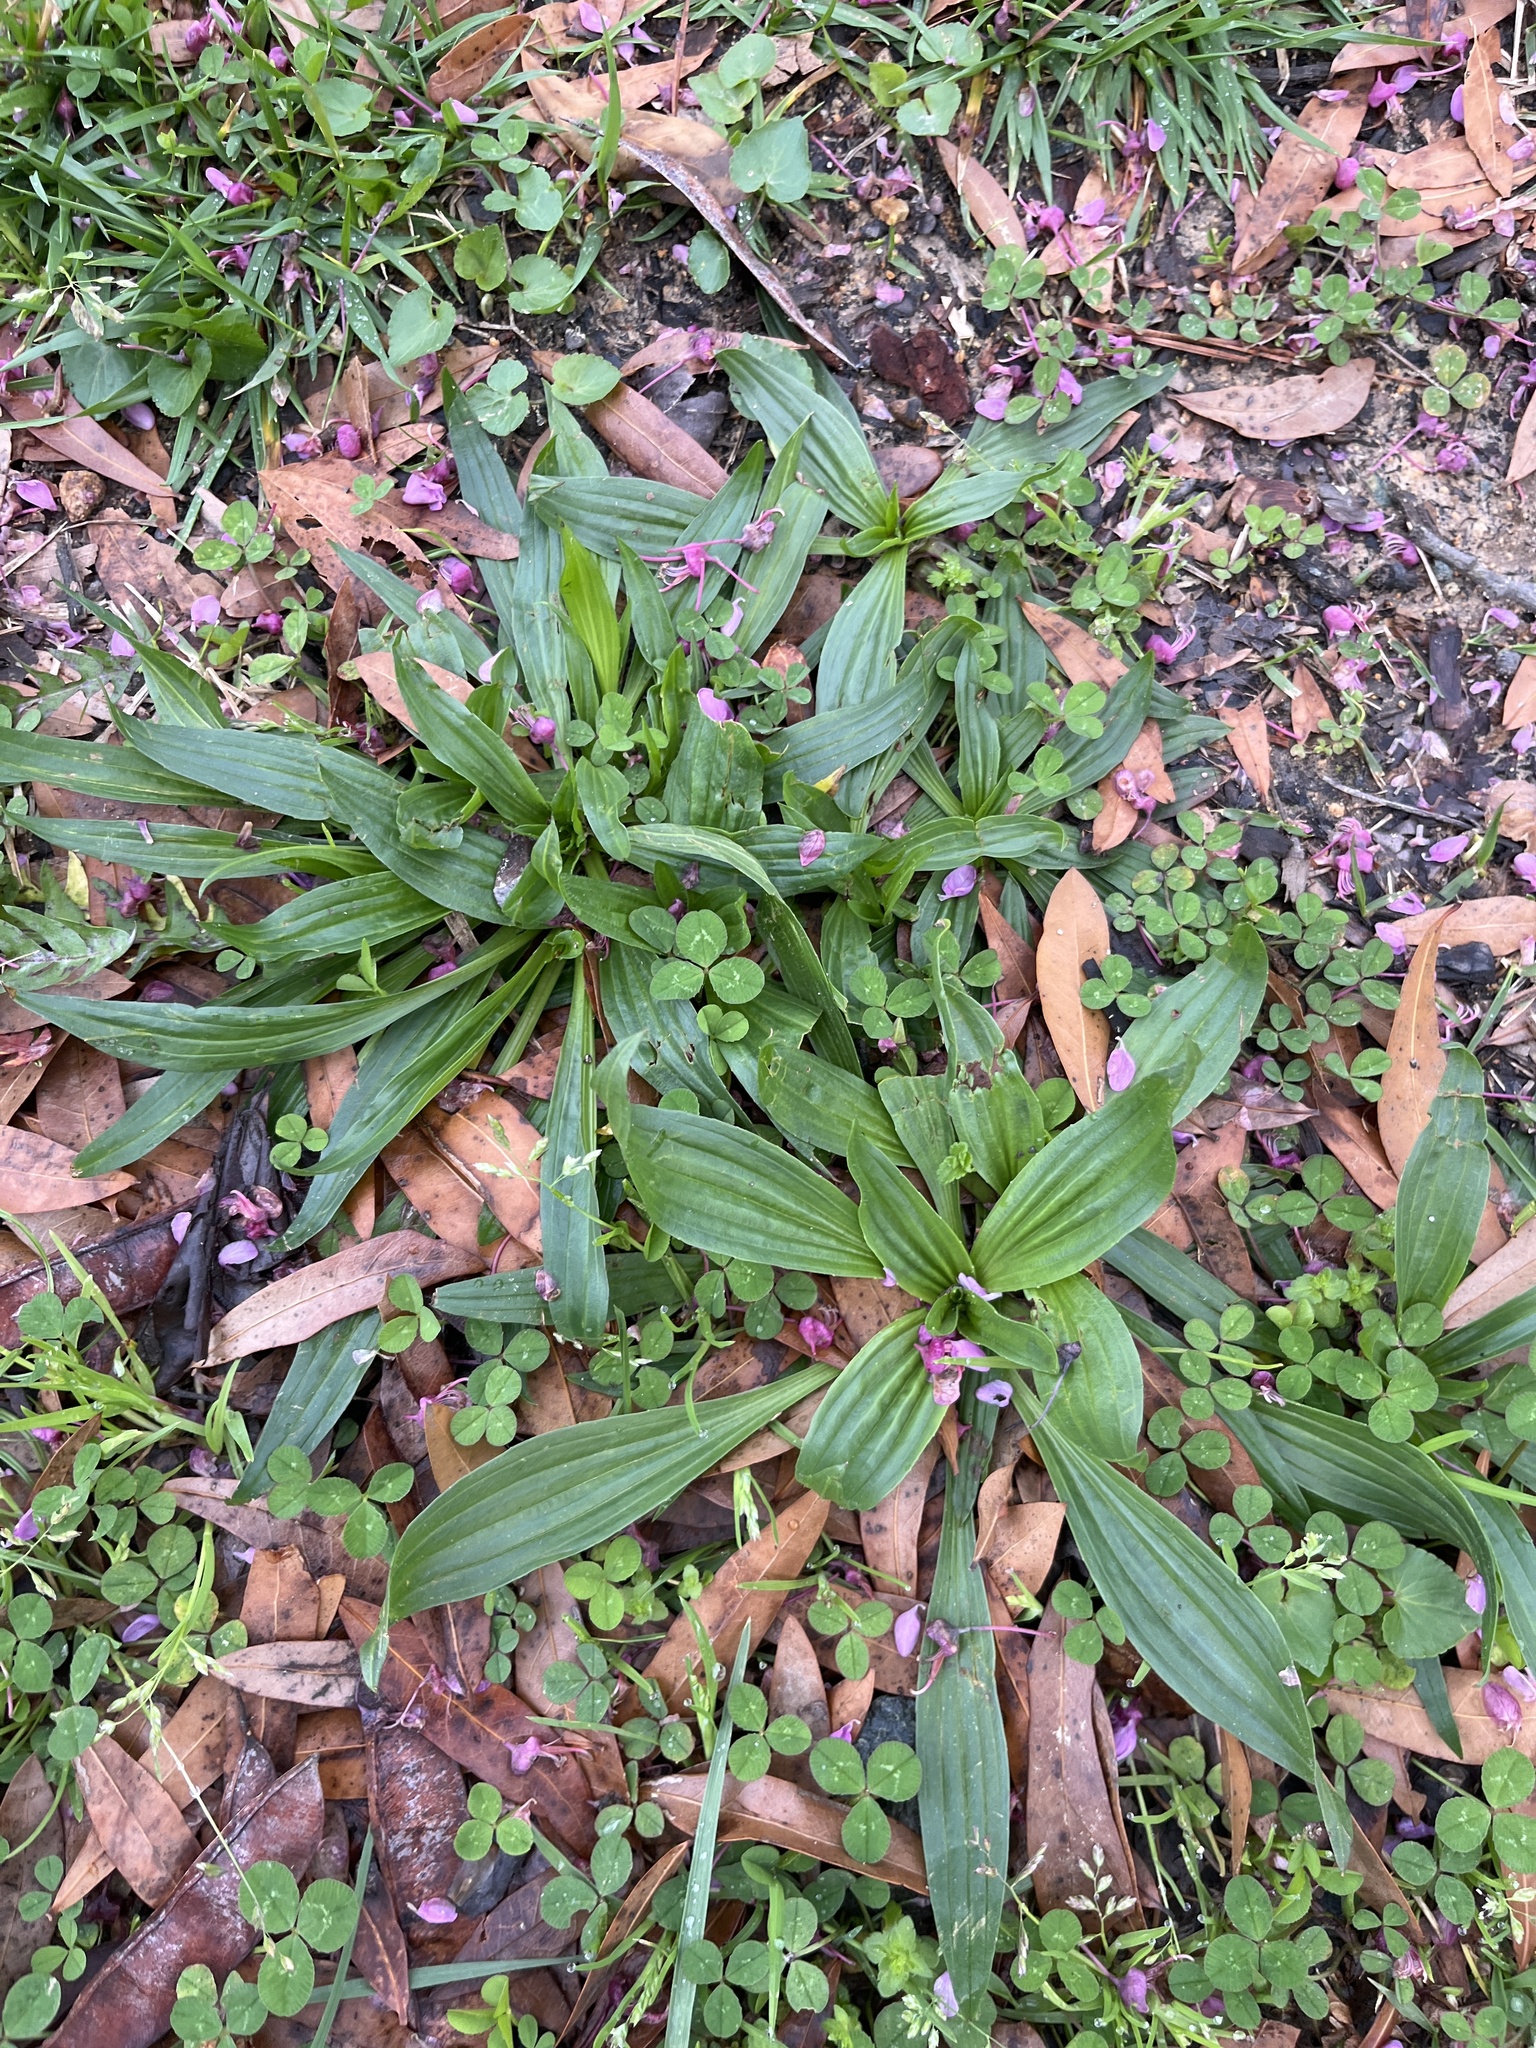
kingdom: Plantae
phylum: Tracheophyta
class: Magnoliopsida
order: Lamiales
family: Plantaginaceae
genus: Plantago
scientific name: Plantago lanceolata
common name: Ribwort plantain
